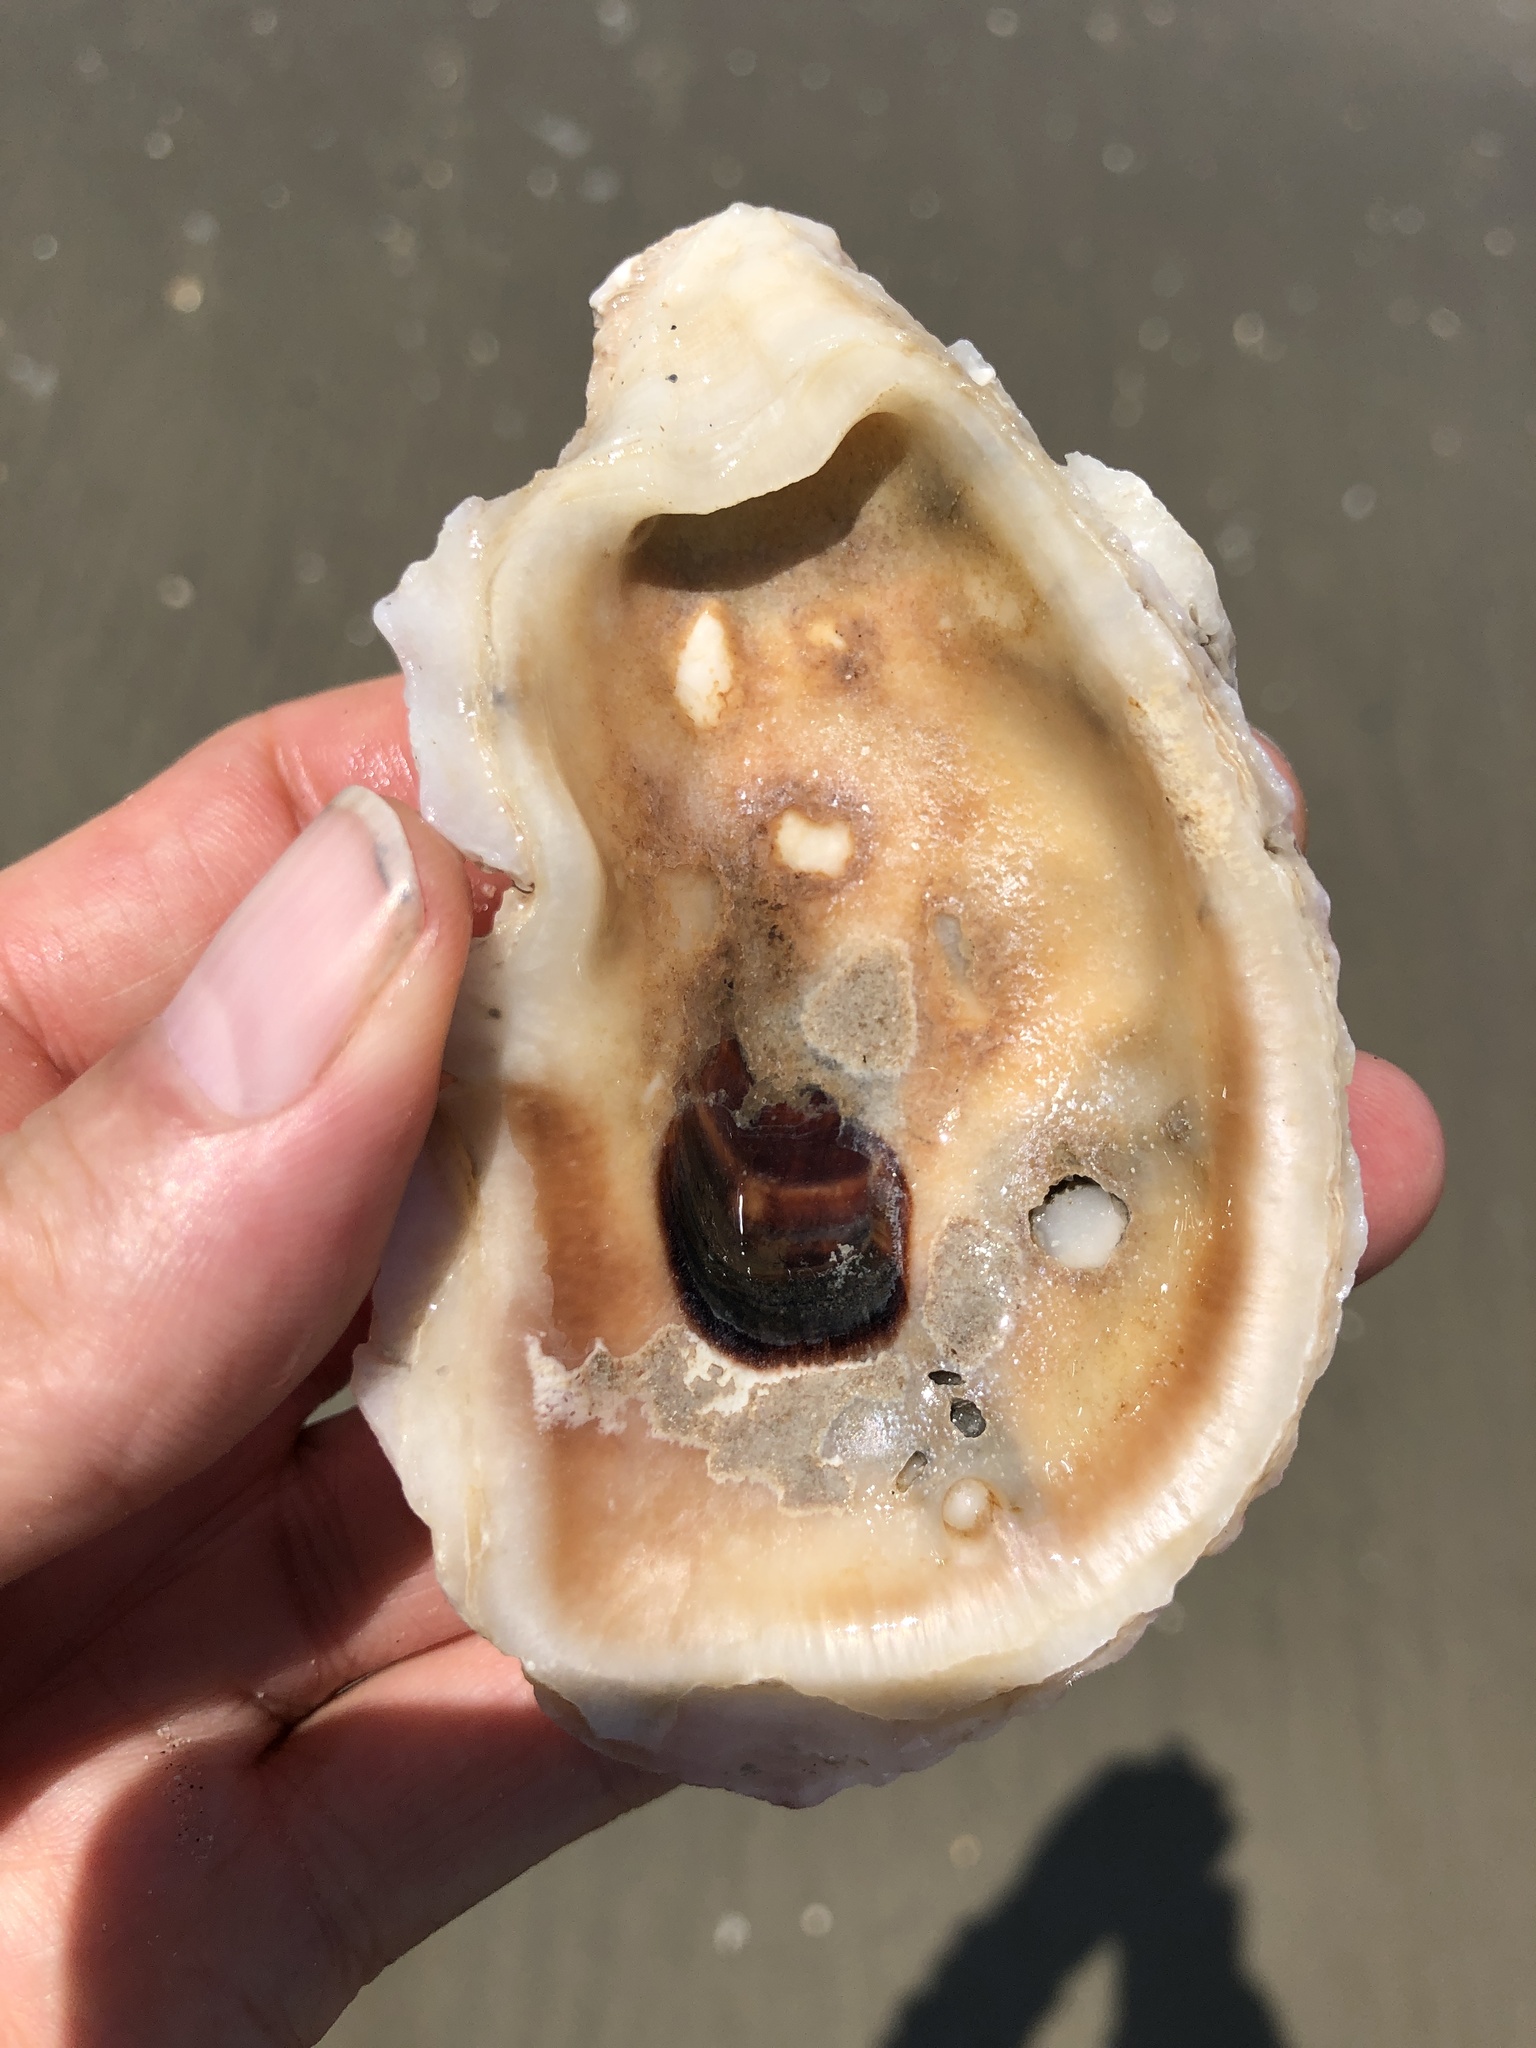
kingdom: Animalia
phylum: Mollusca
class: Bivalvia
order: Ostreida
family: Ostreidae
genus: Crassostrea
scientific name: Crassostrea virginica
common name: American oyster
